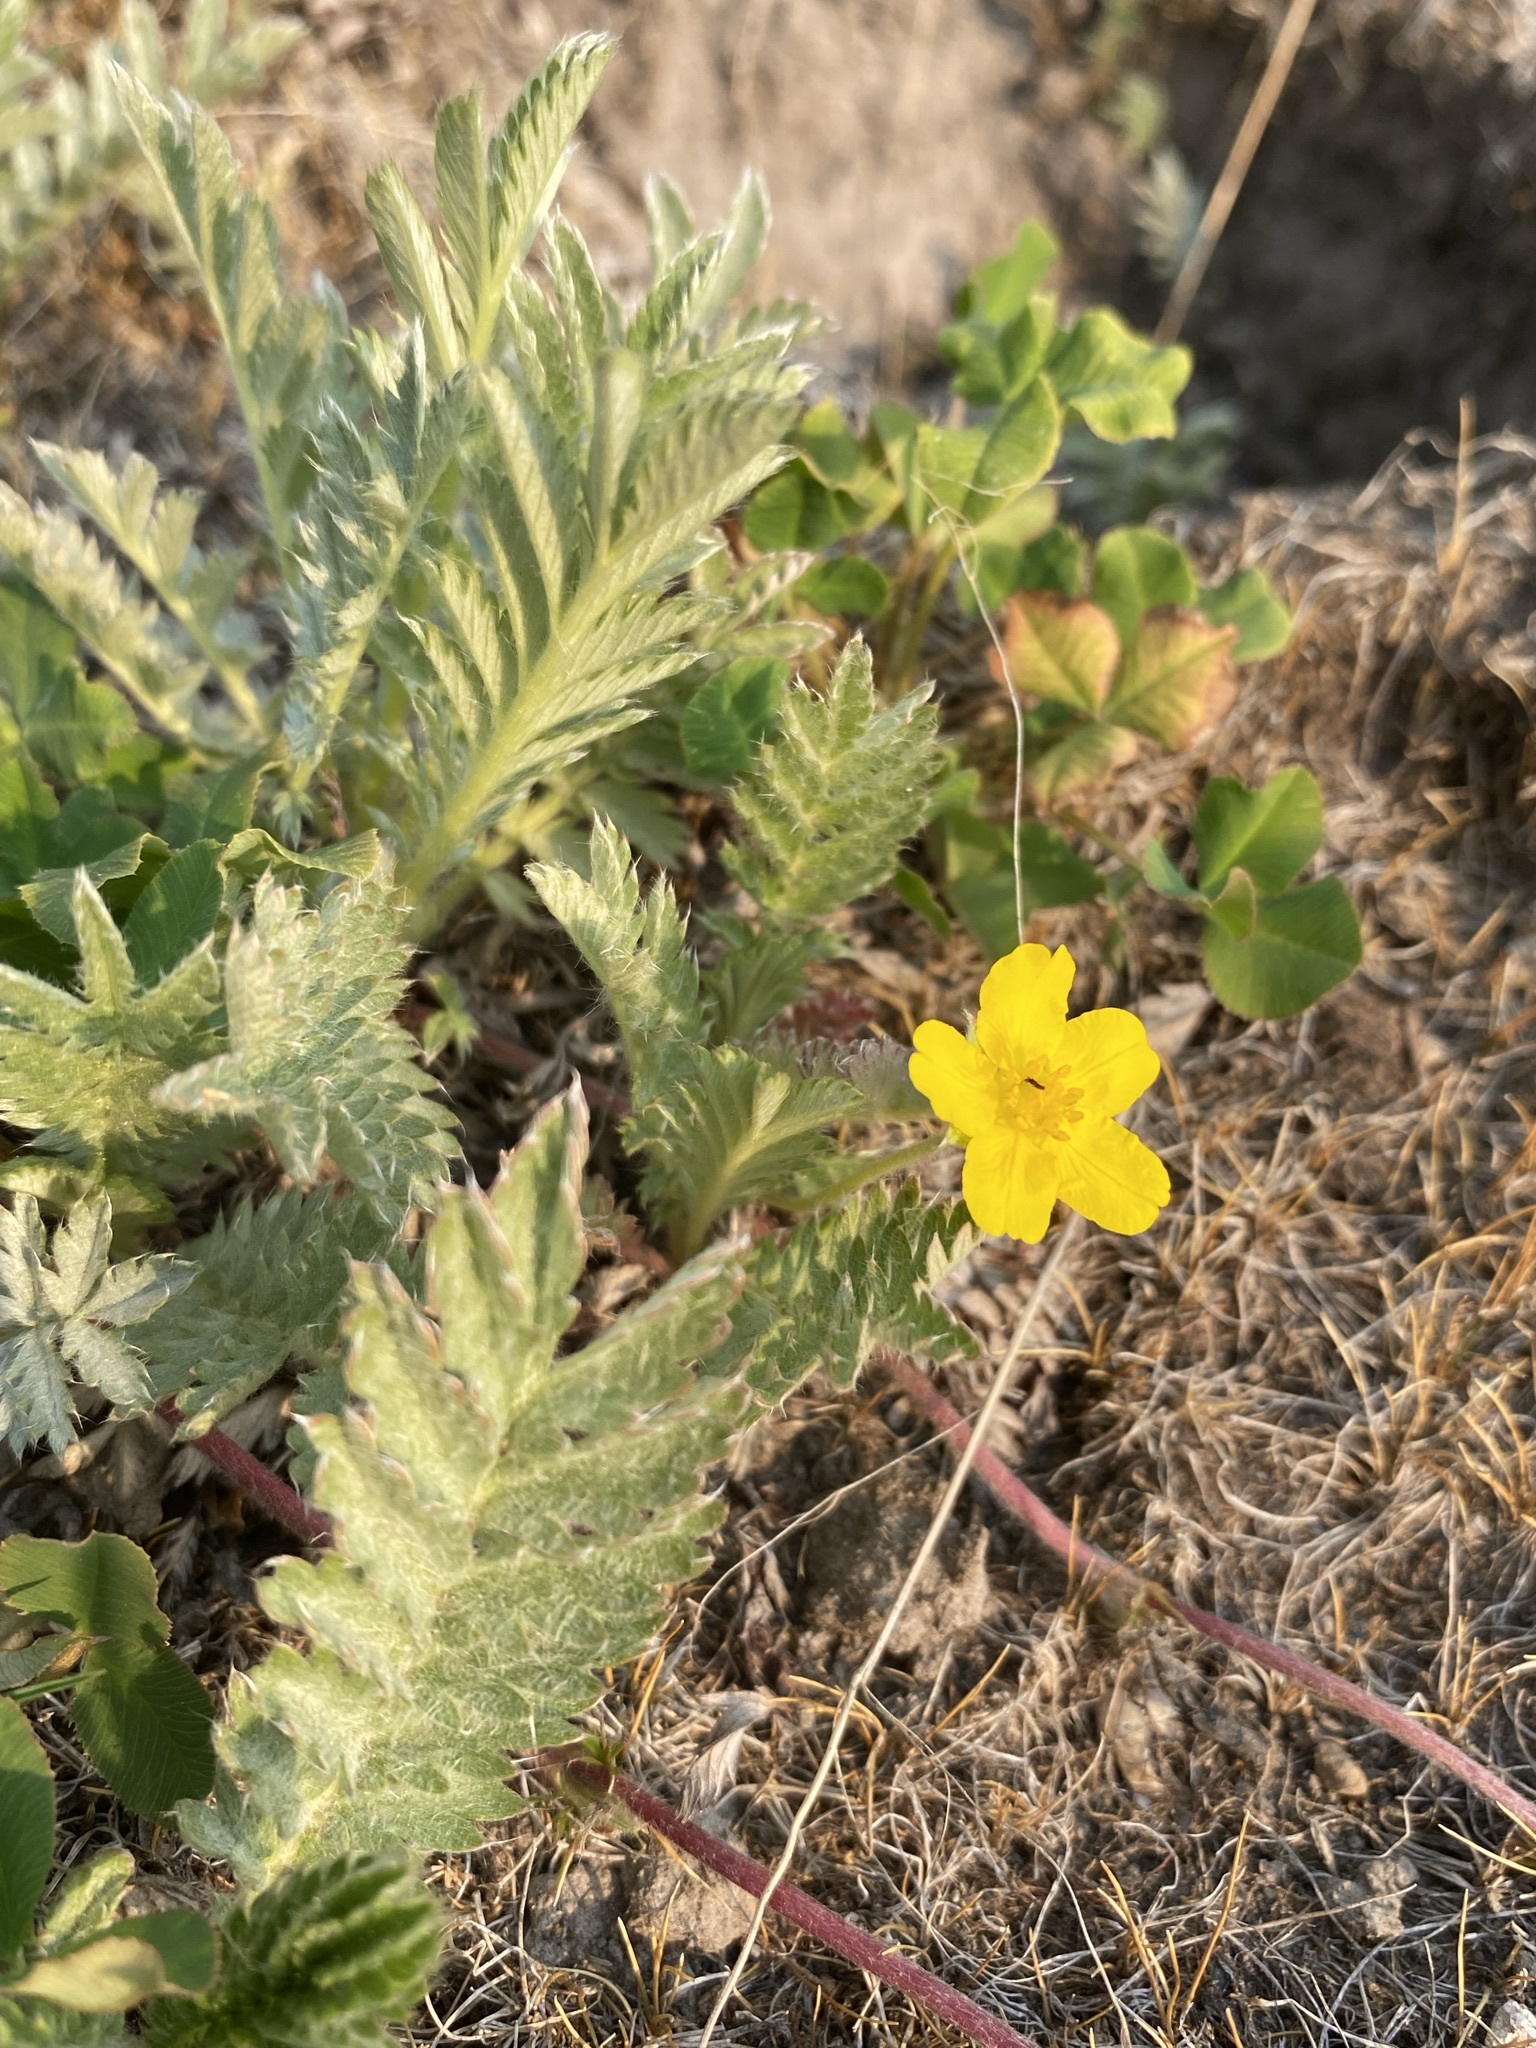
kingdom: Plantae
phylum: Tracheophyta
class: Magnoliopsida
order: Rosales
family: Rosaceae
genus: Argentina
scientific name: Argentina anserina
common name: Common silverweed
